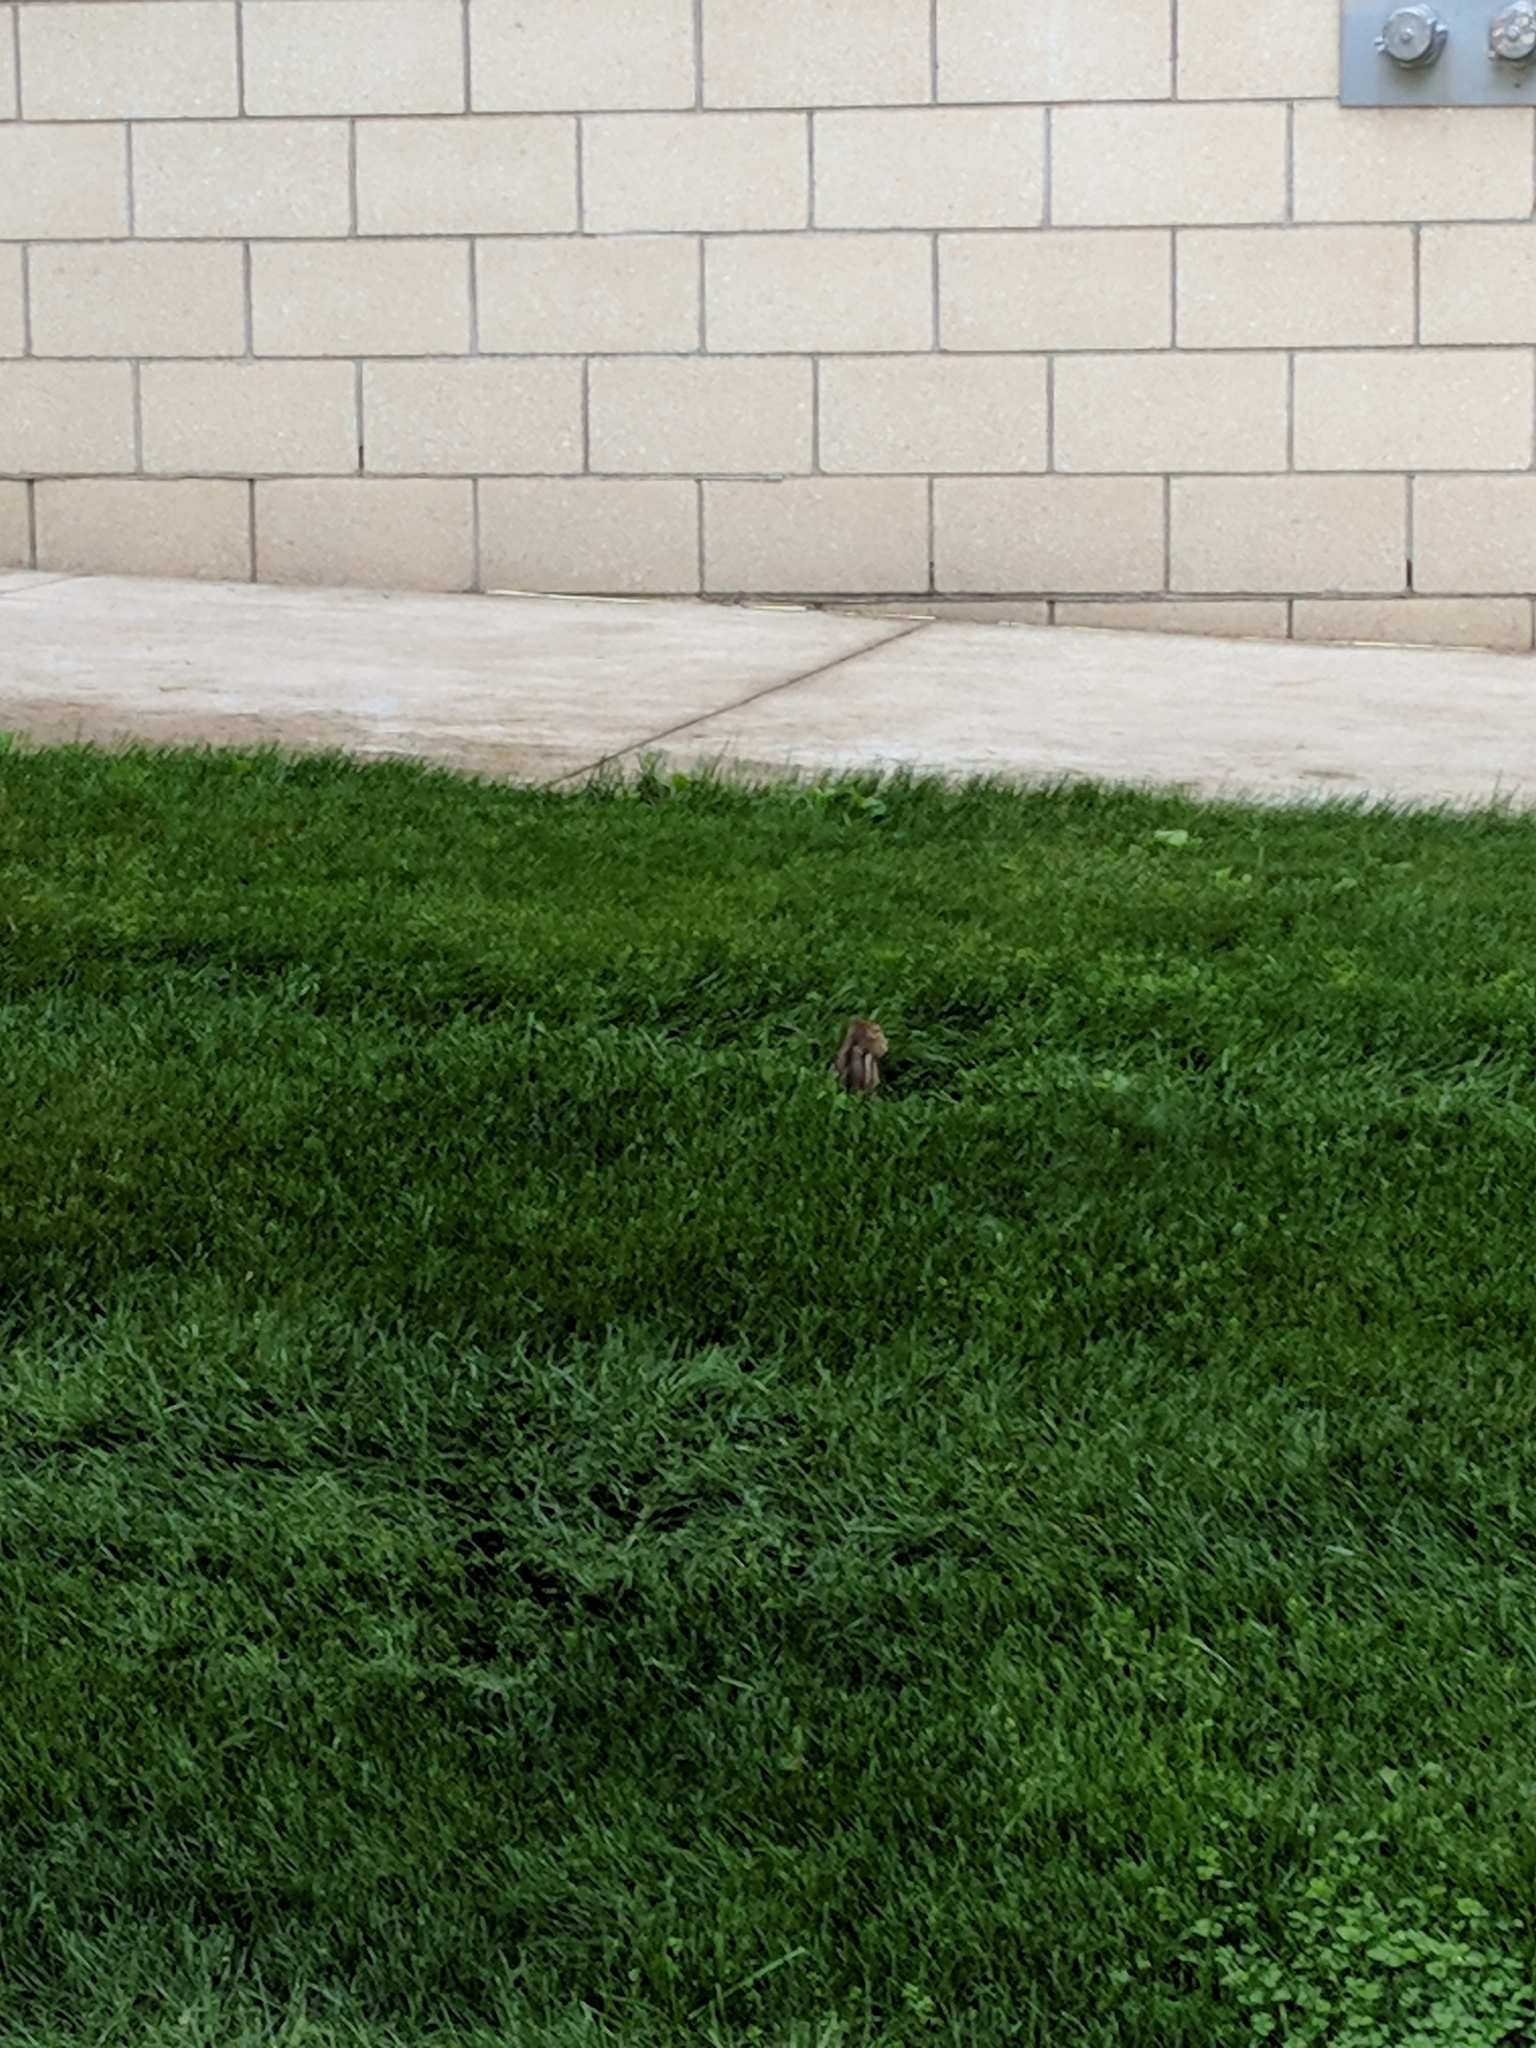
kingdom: Animalia
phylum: Chordata
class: Mammalia
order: Rodentia
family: Sciuridae
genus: Tamias
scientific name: Tamias striatus
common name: Eastern chipmunk
